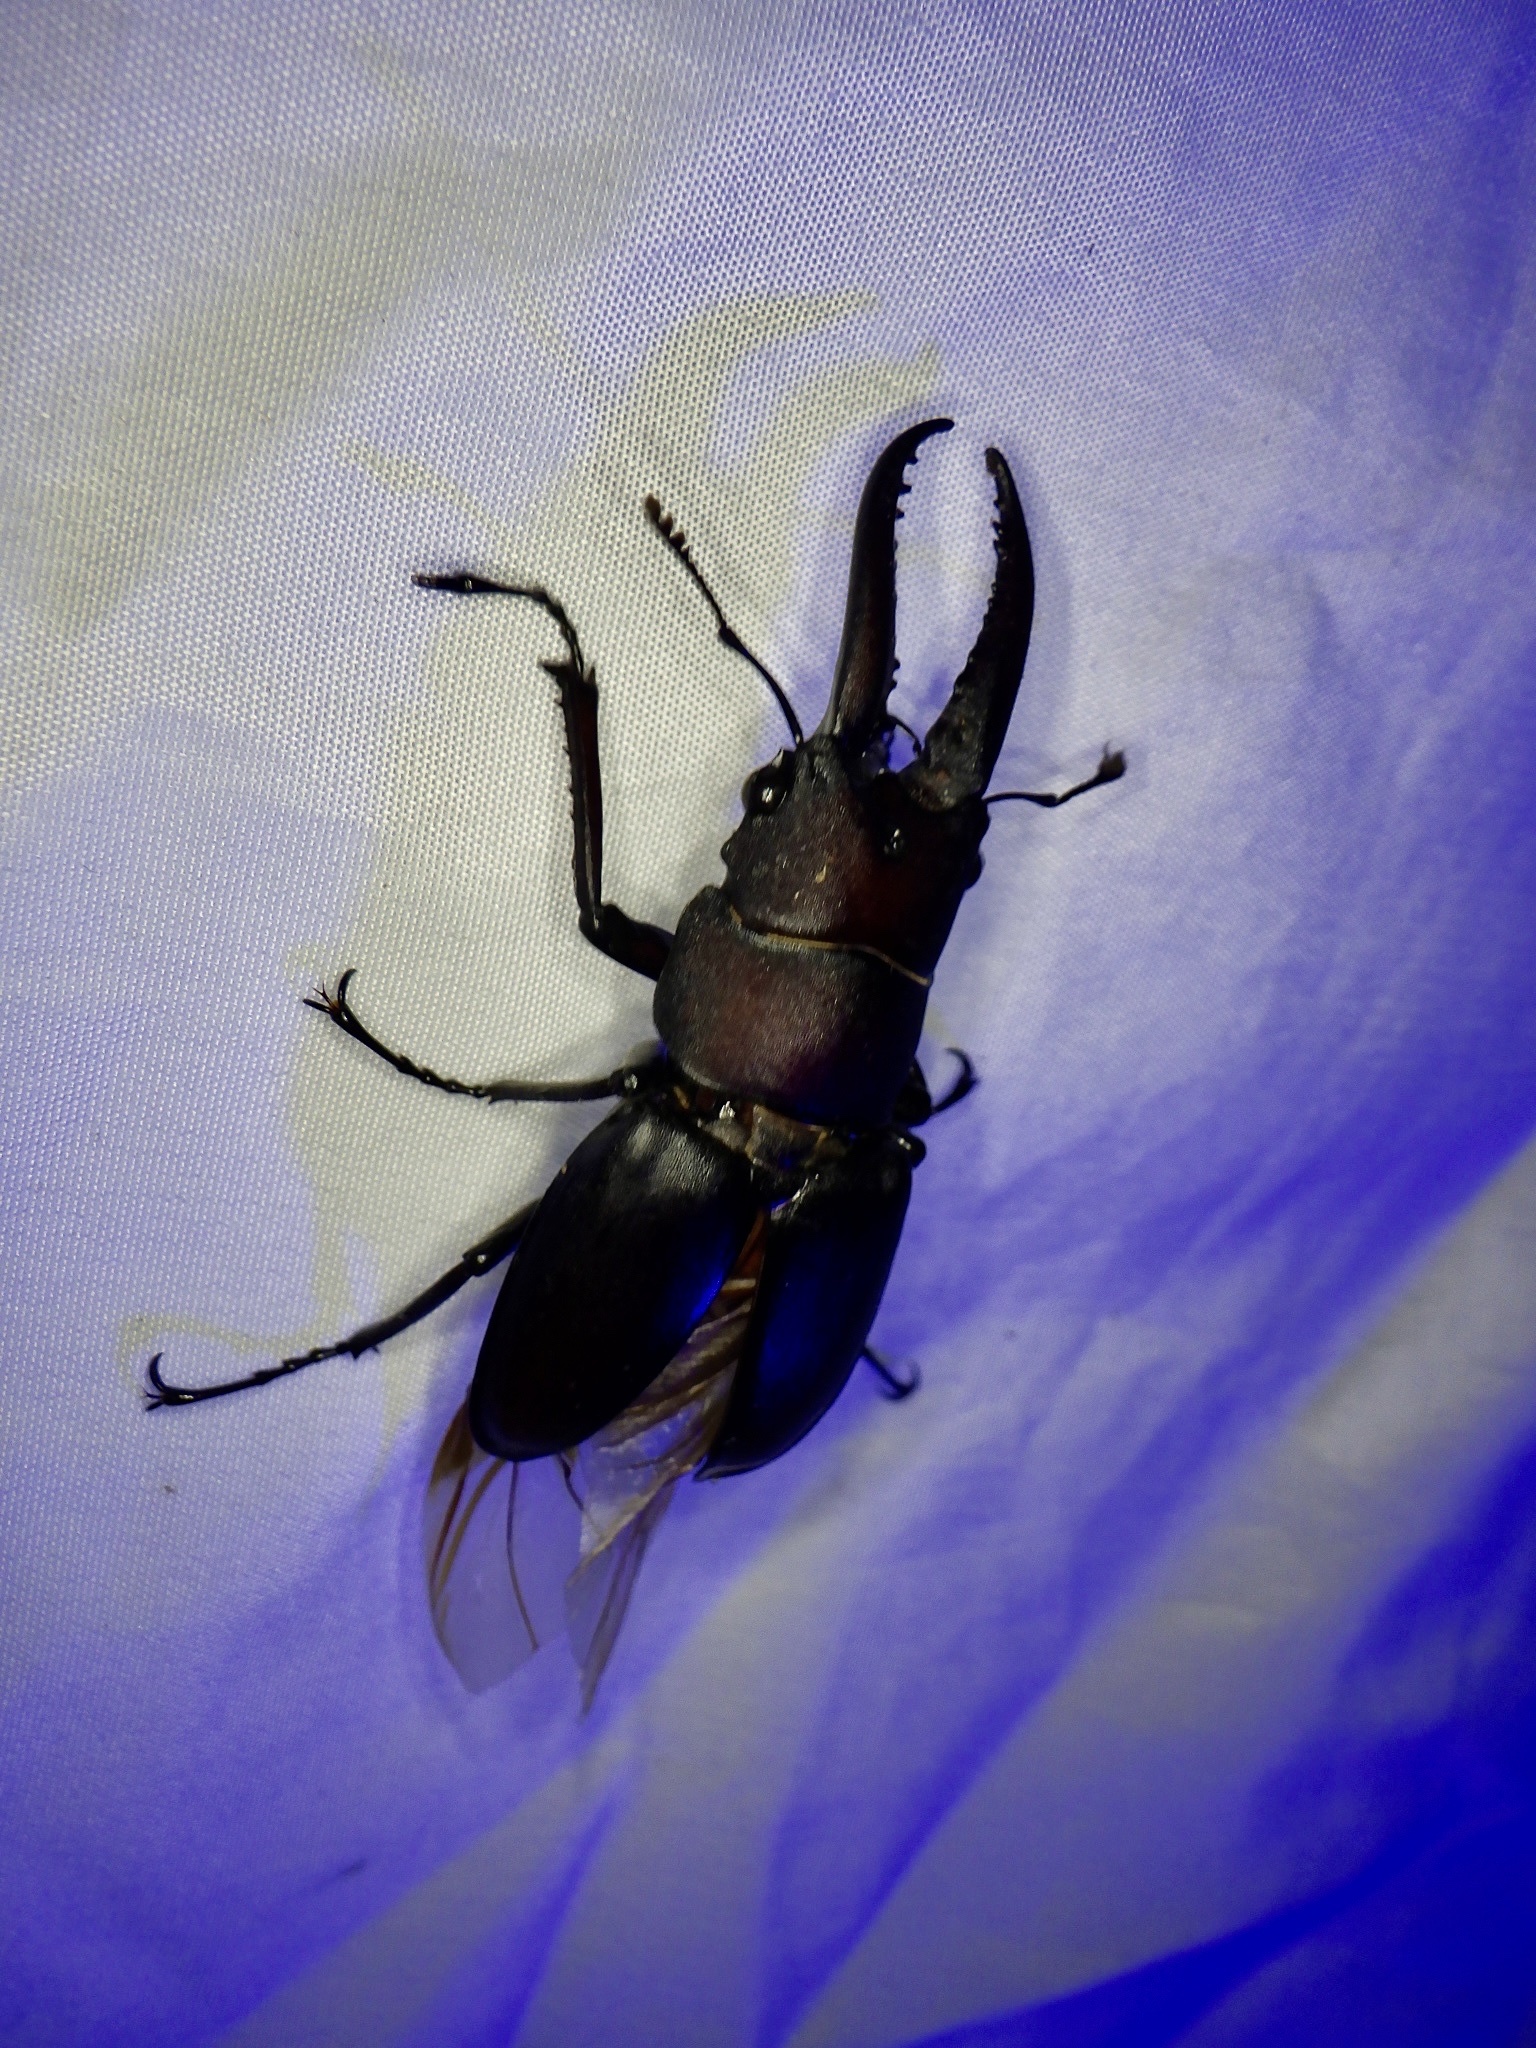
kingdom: Animalia
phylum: Arthropoda
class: Insecta
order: Coleoptera
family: Lucanidae
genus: Prosopocoilus
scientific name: Prosopocoilus inclinatus
